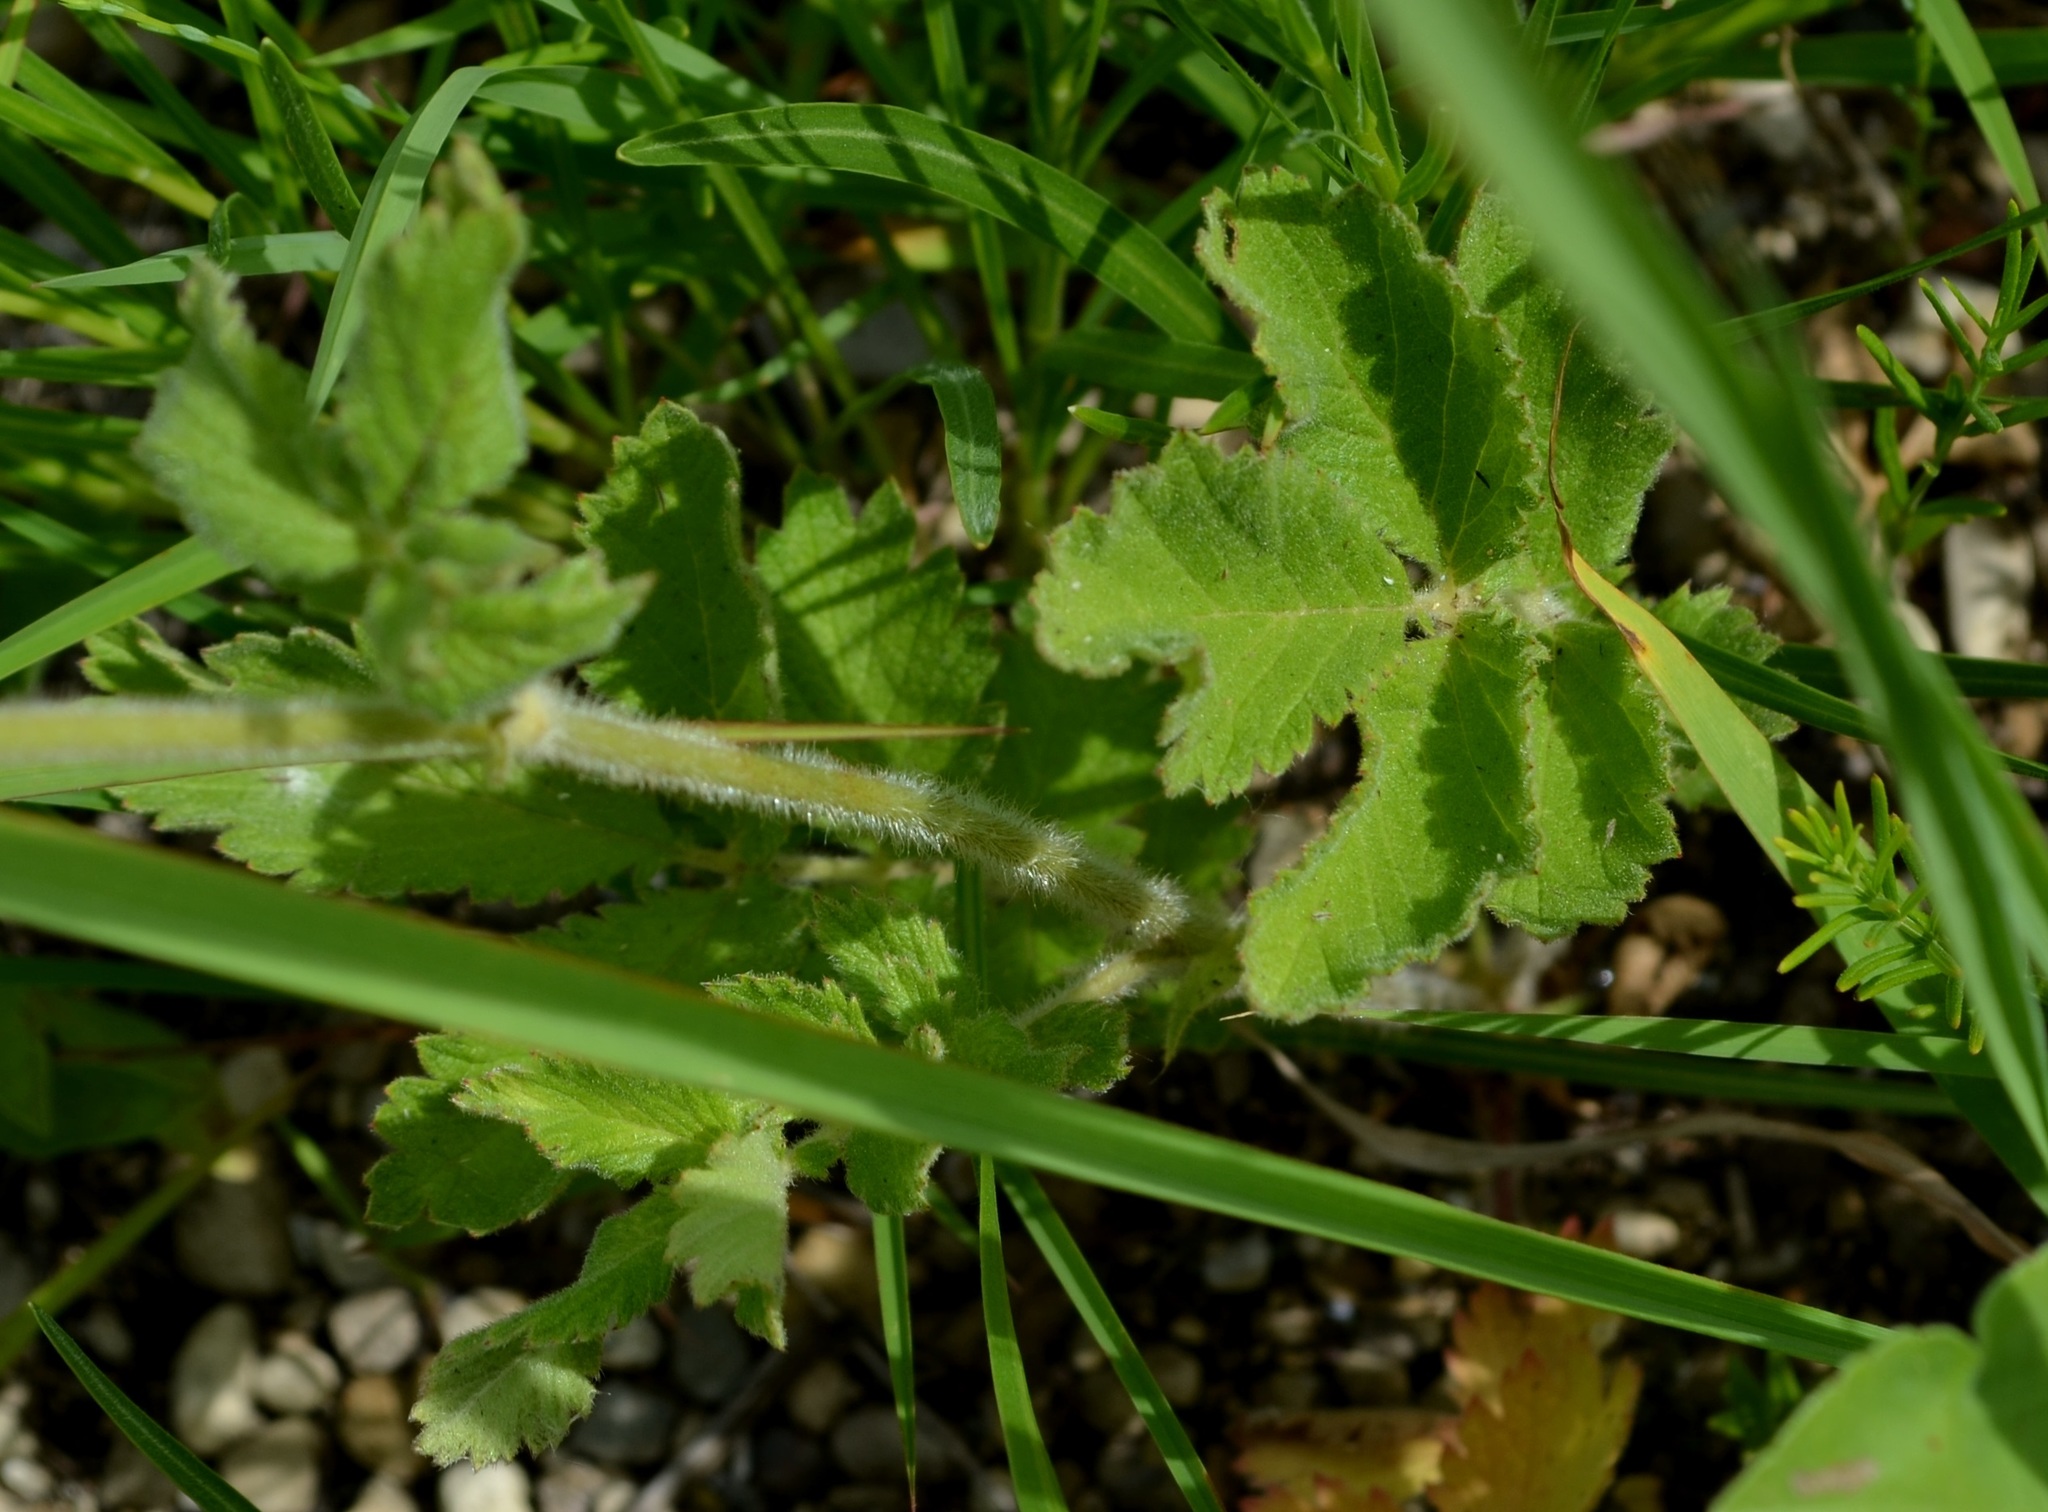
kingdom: Plantae
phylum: Tracheophyta
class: Magnoliopsida
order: Rosales
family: Rosaceae
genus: Drymocallis
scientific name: Drymocallis arguta
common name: Tall cinquefoil
